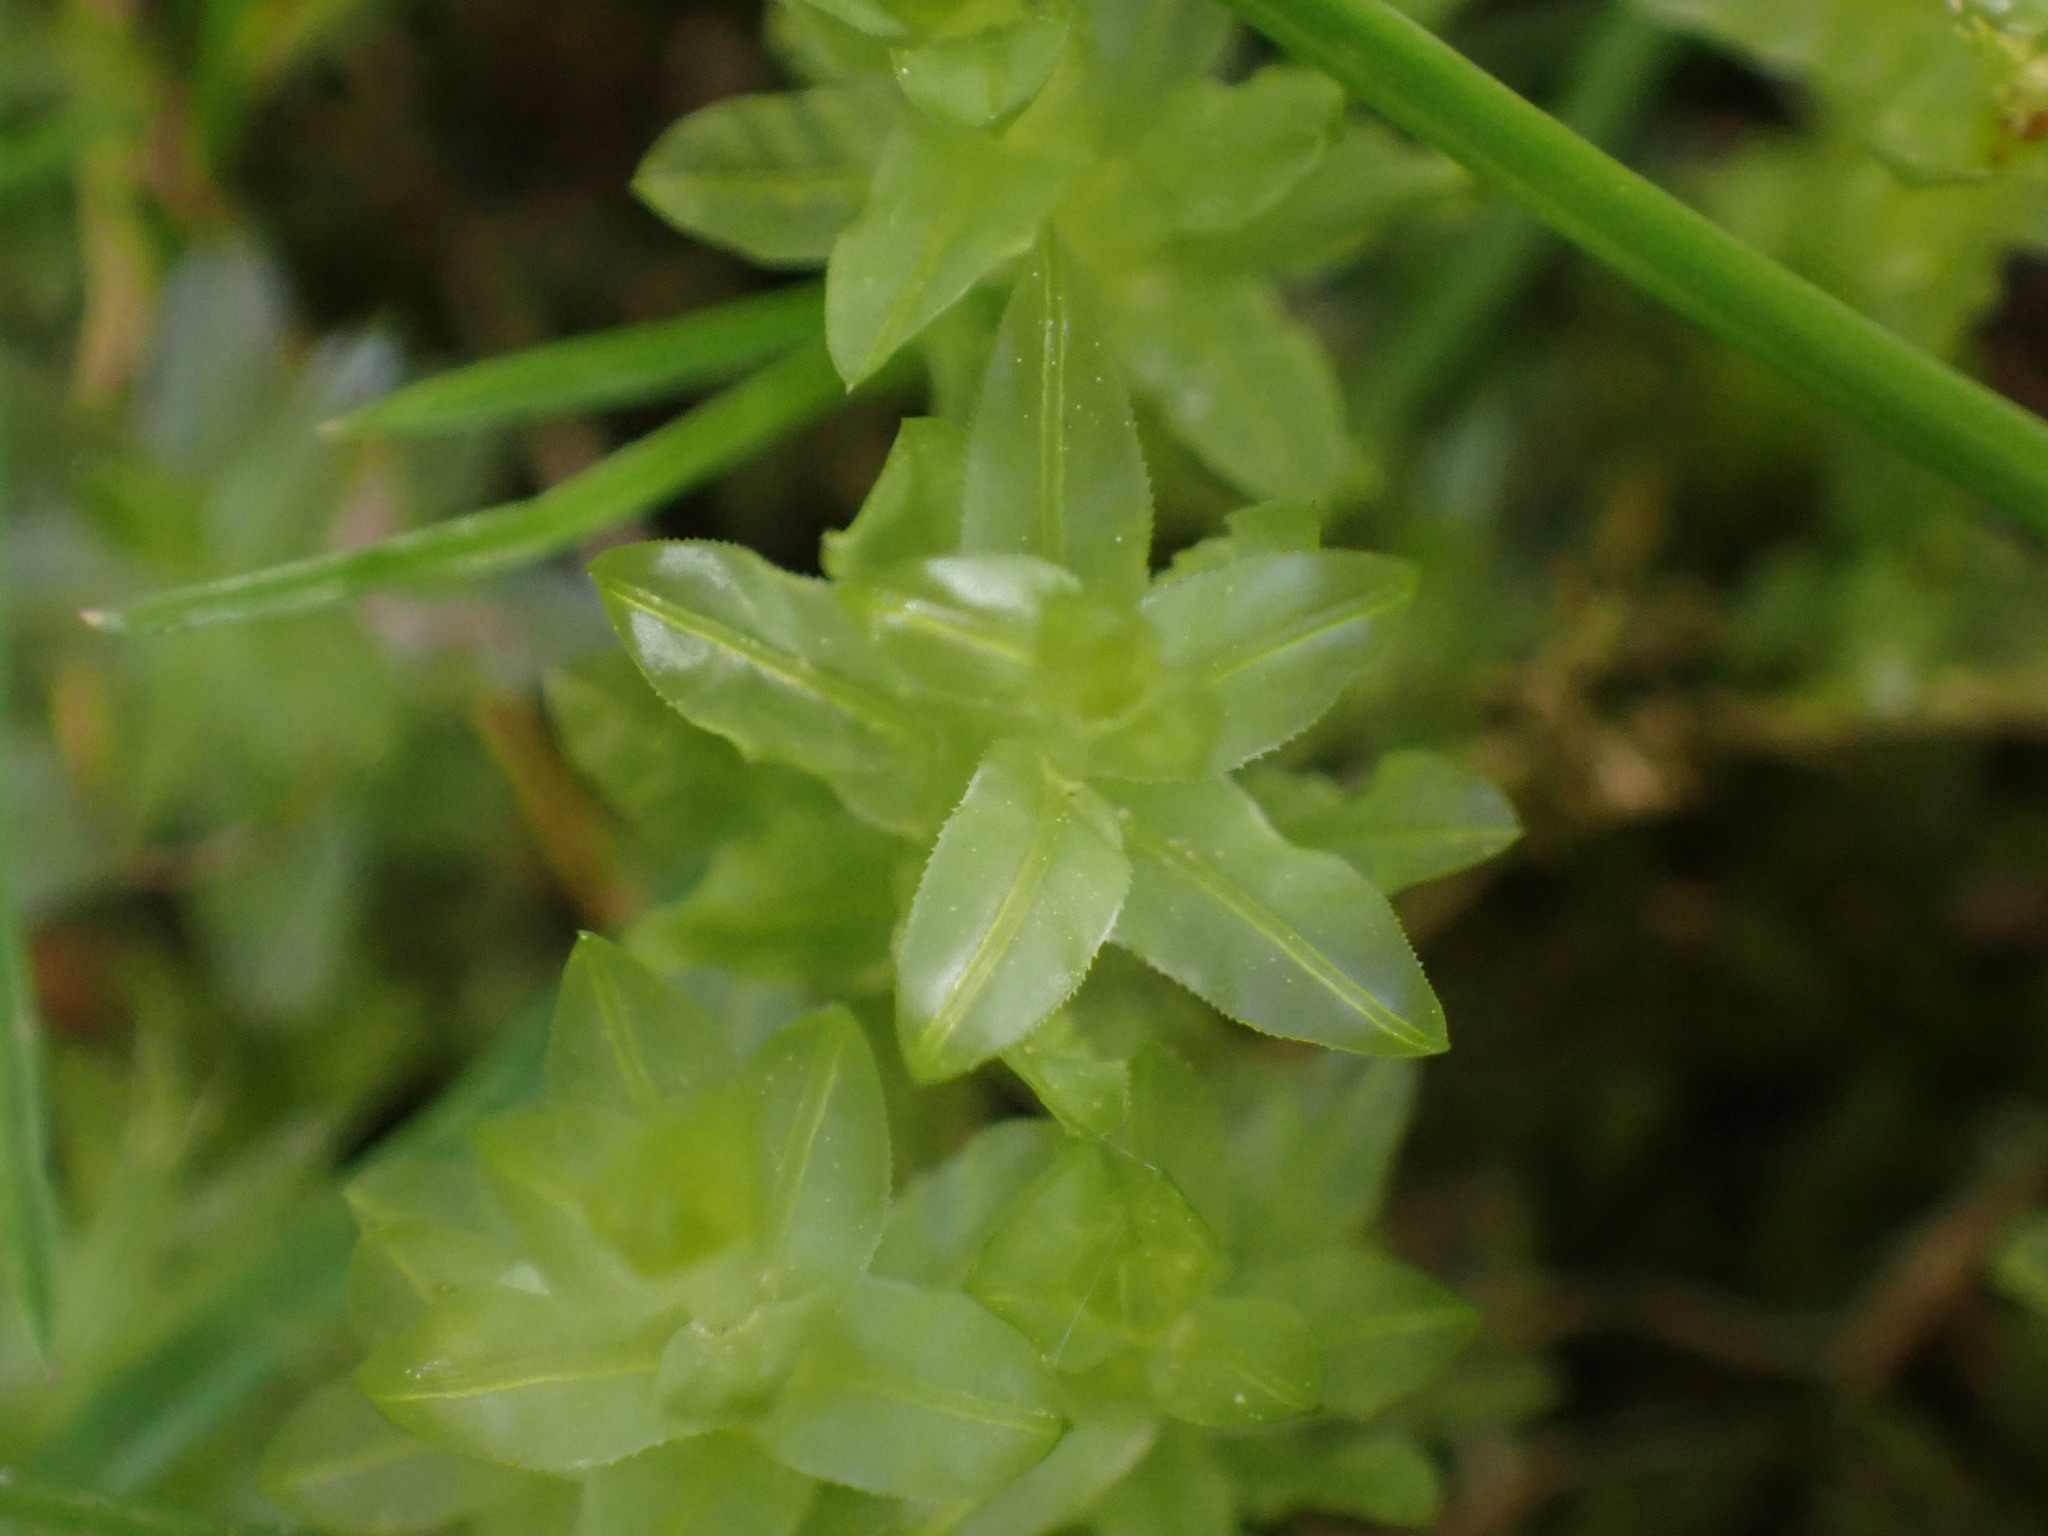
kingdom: Plantae
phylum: Bryophyta
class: Bryopsida
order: Bryales
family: Mniaceae
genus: Plagiomnium
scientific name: Plagiomnium undulatum
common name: Hart's-tongue thyme-moss
